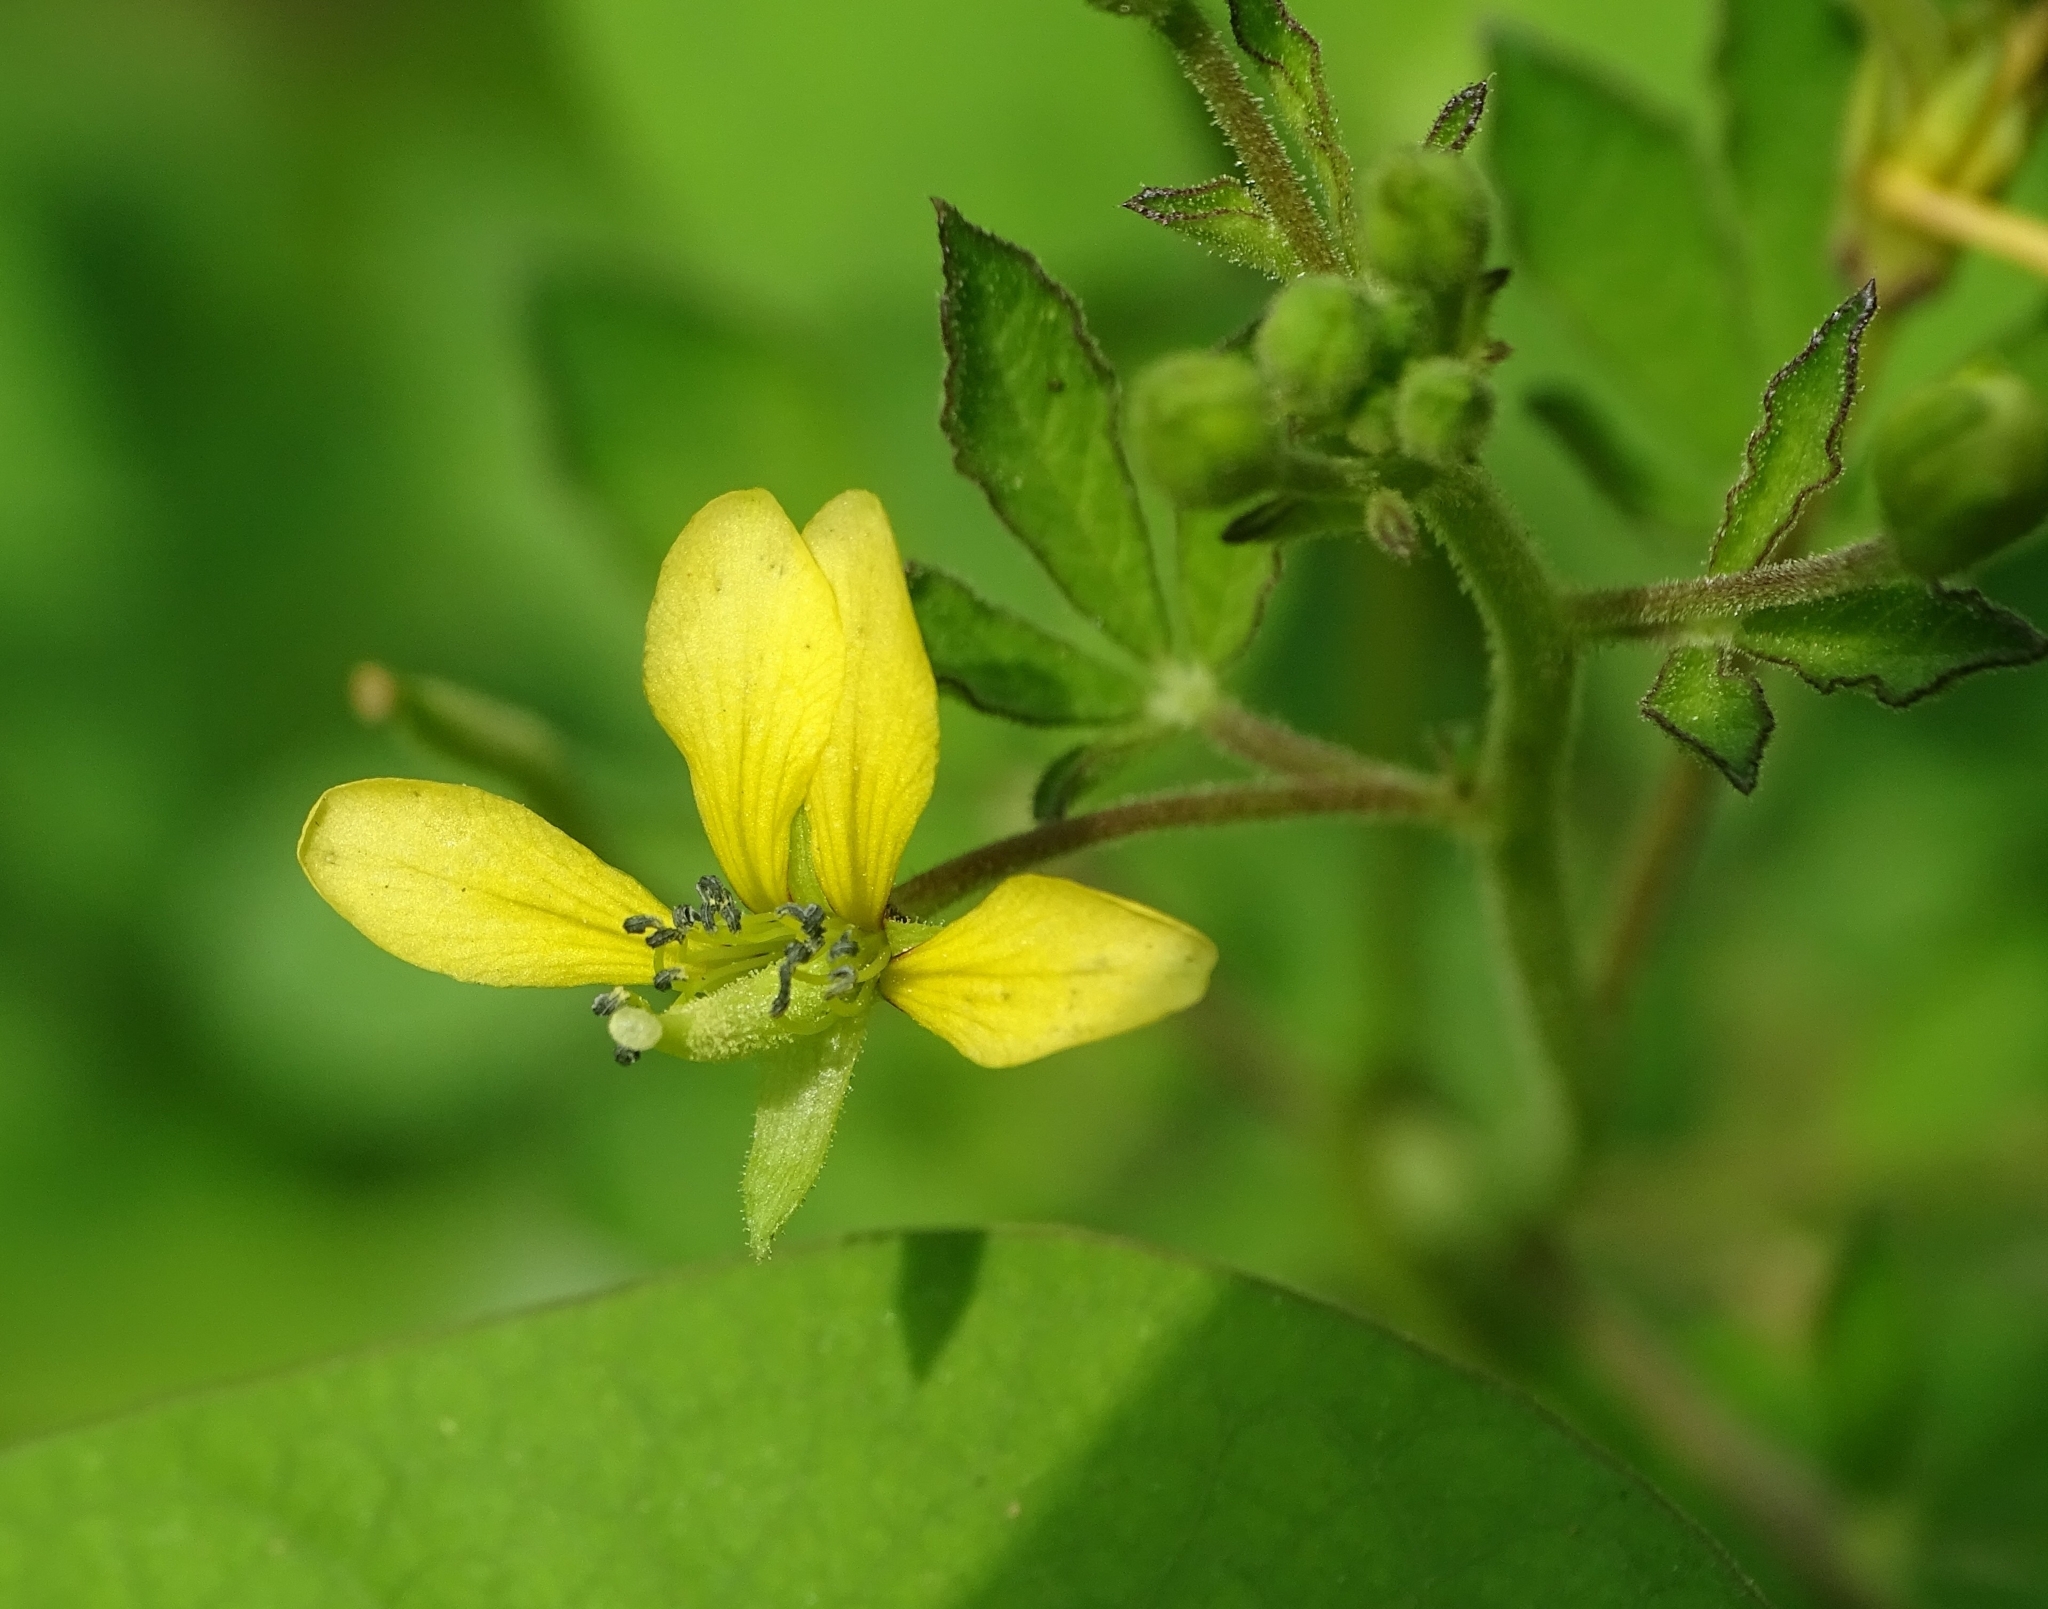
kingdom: Plantae
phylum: Tracheophyta
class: Magnoliopsida
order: Brassicales
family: Cleomaceae
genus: Arivela
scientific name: Arivela viscosa
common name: Asian spiderflower
